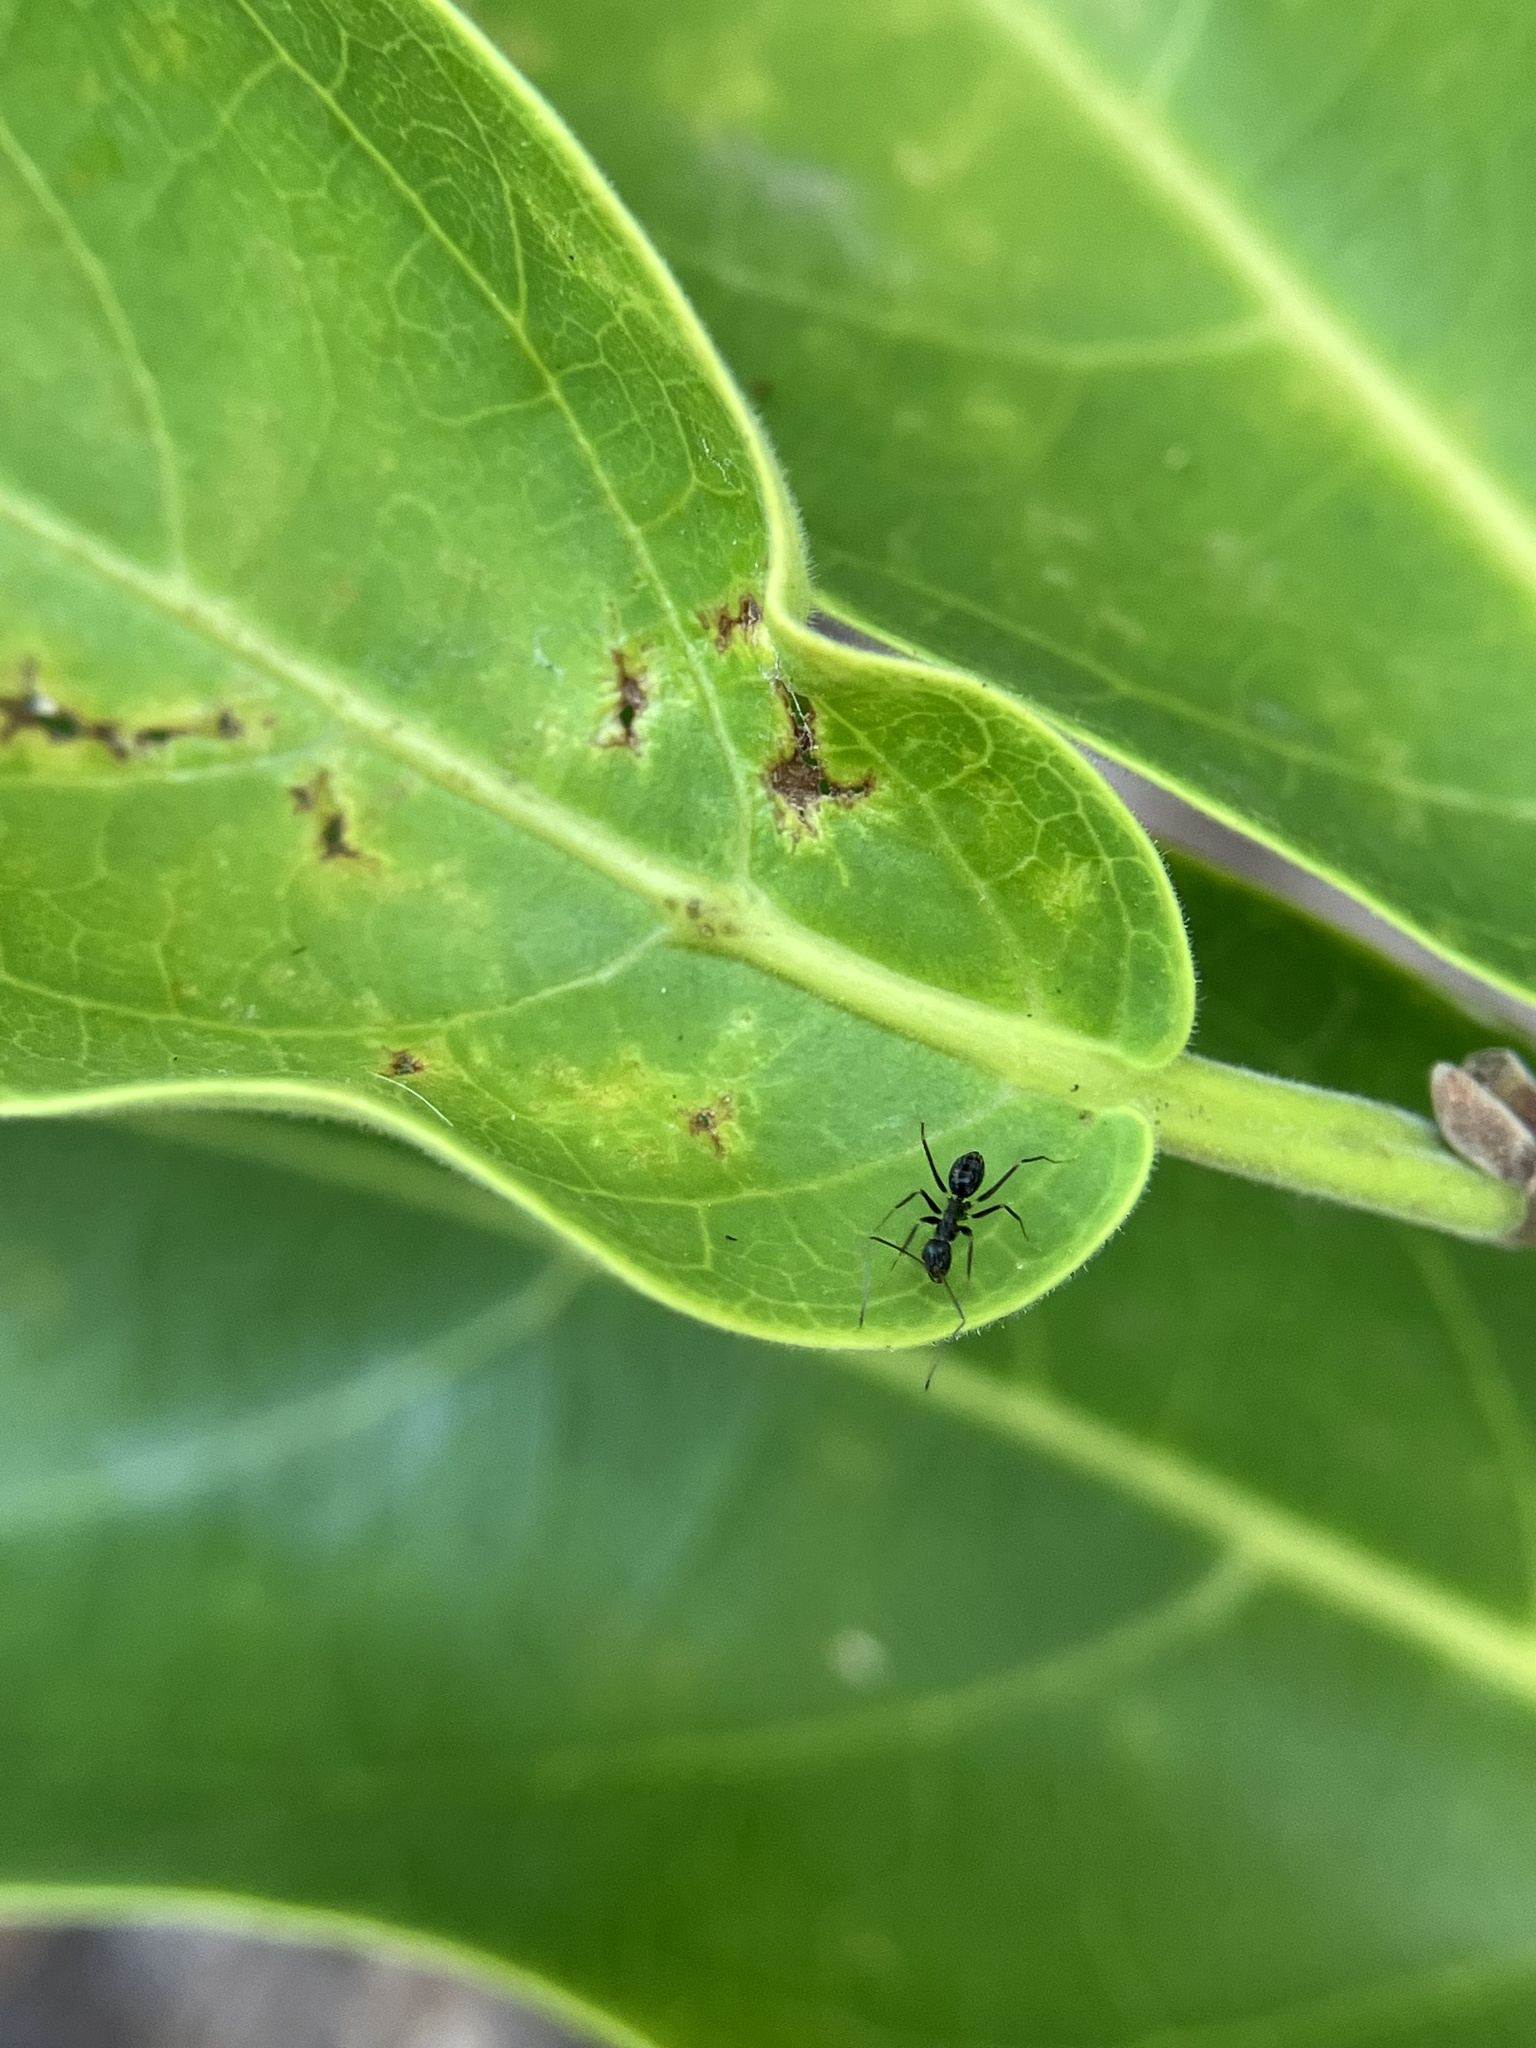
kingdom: Animalia
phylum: Arthropoda
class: Insecta
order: Hymenoptera
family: Formicidae
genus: Paratrechina
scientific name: Paratrechina longicornis
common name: Longhorned crazy ant
